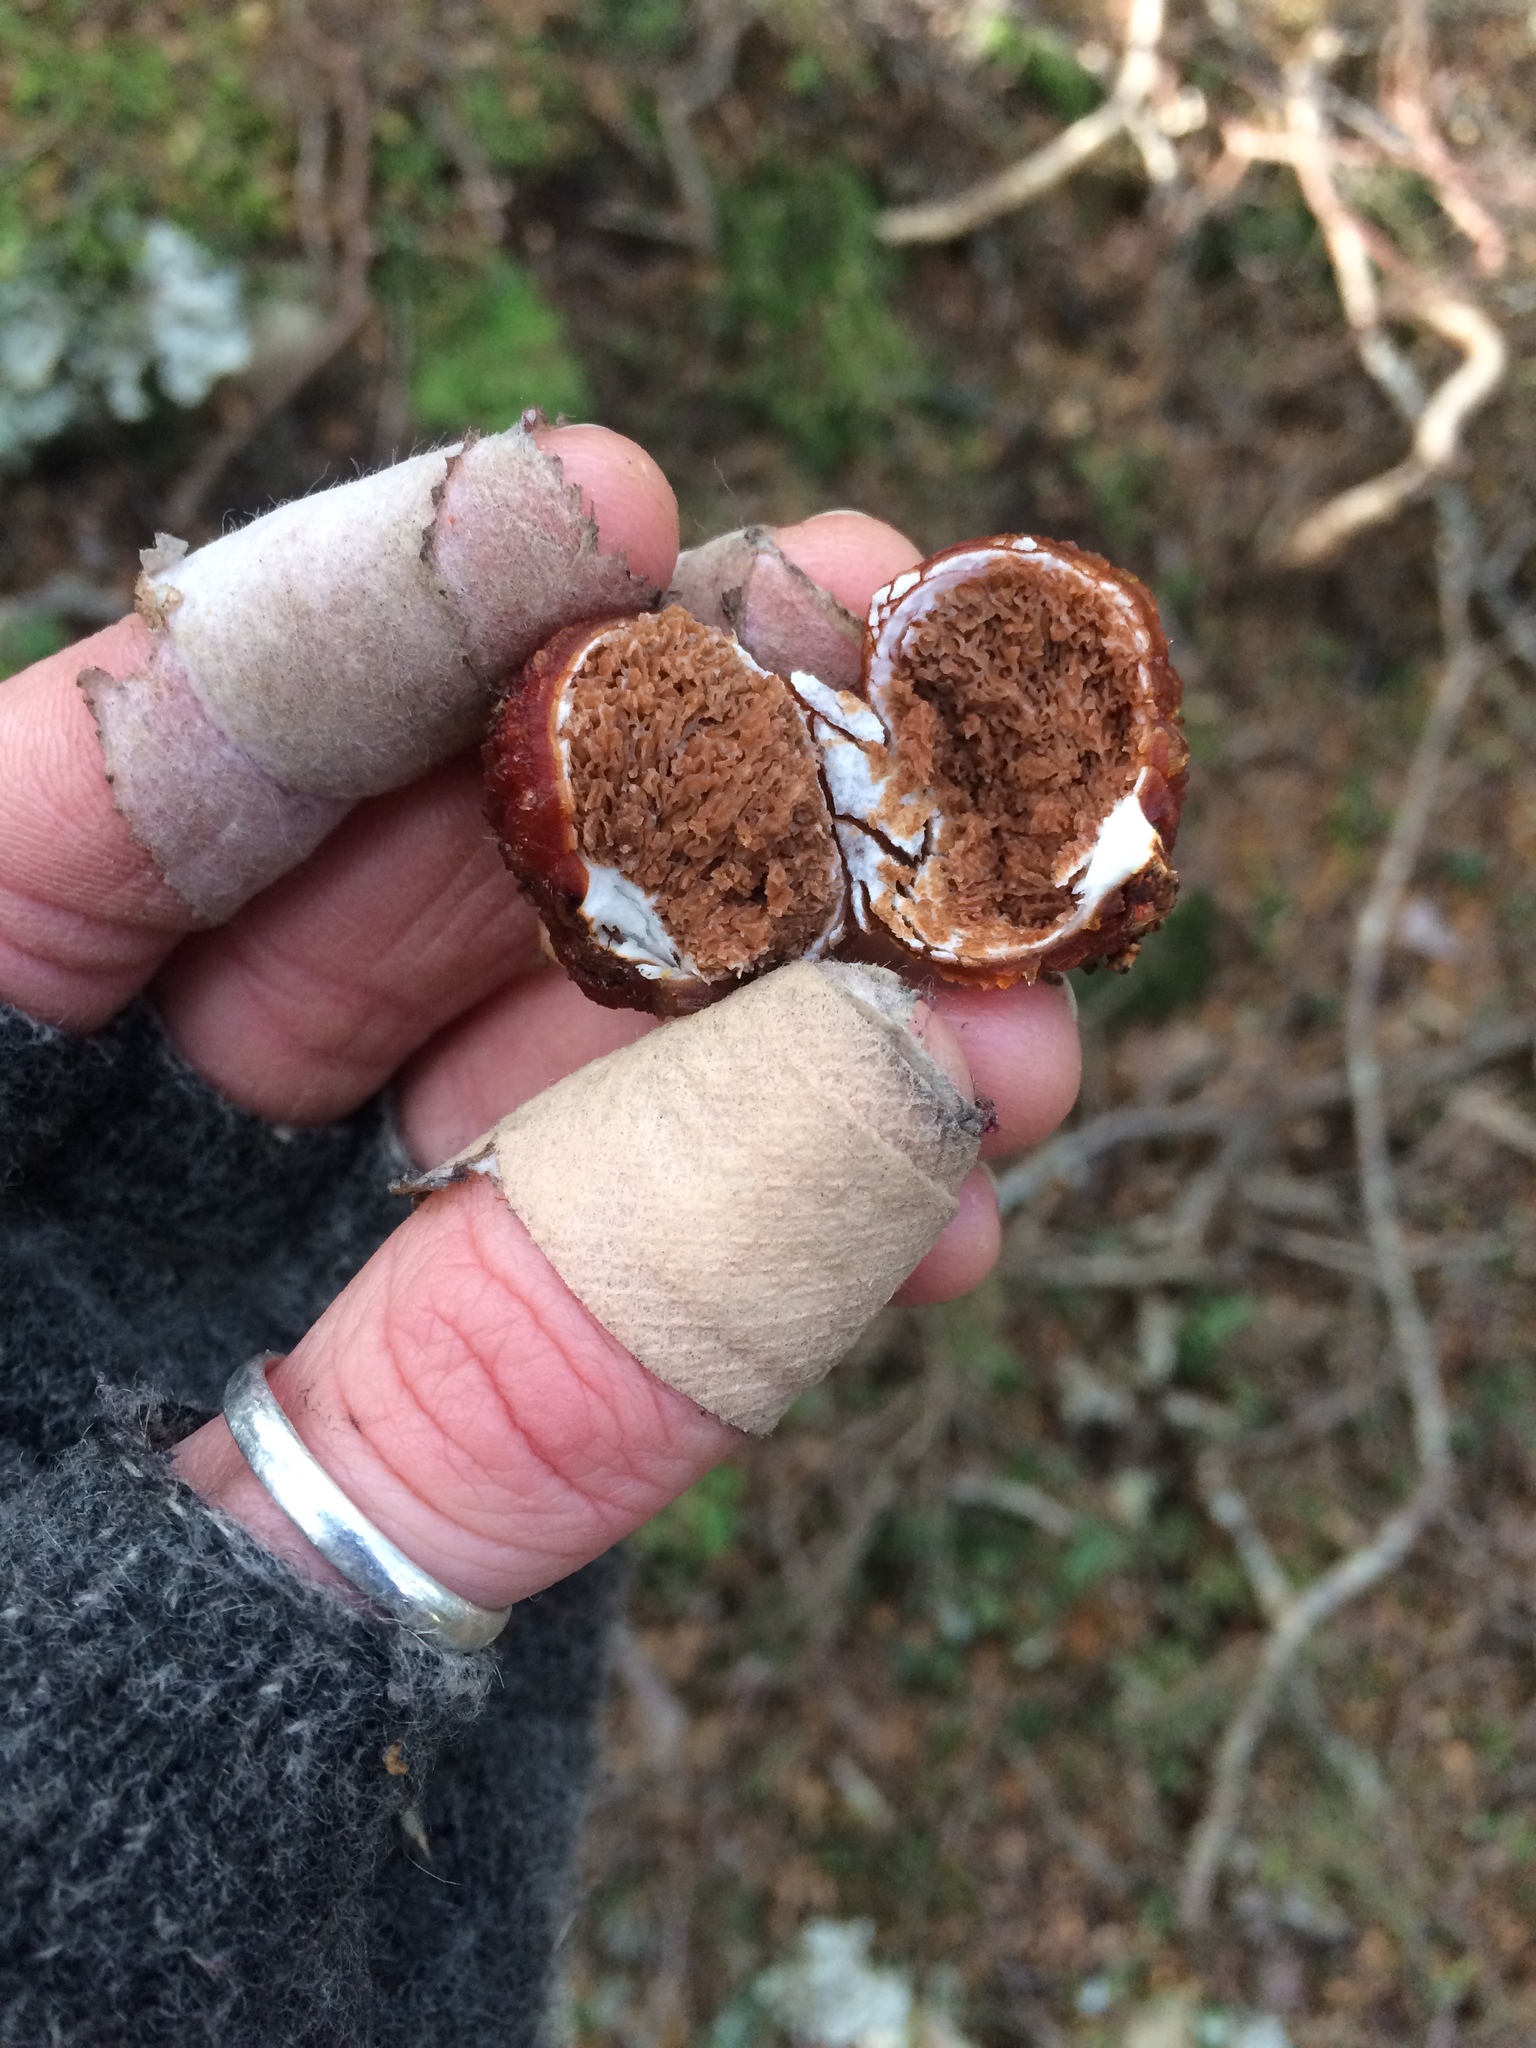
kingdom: Fungi
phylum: Basidiomycota
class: Agaricomycetes
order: Agaricales
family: Cortinariaceae
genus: Cortinarius
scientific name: Cortinarius beeverorum
